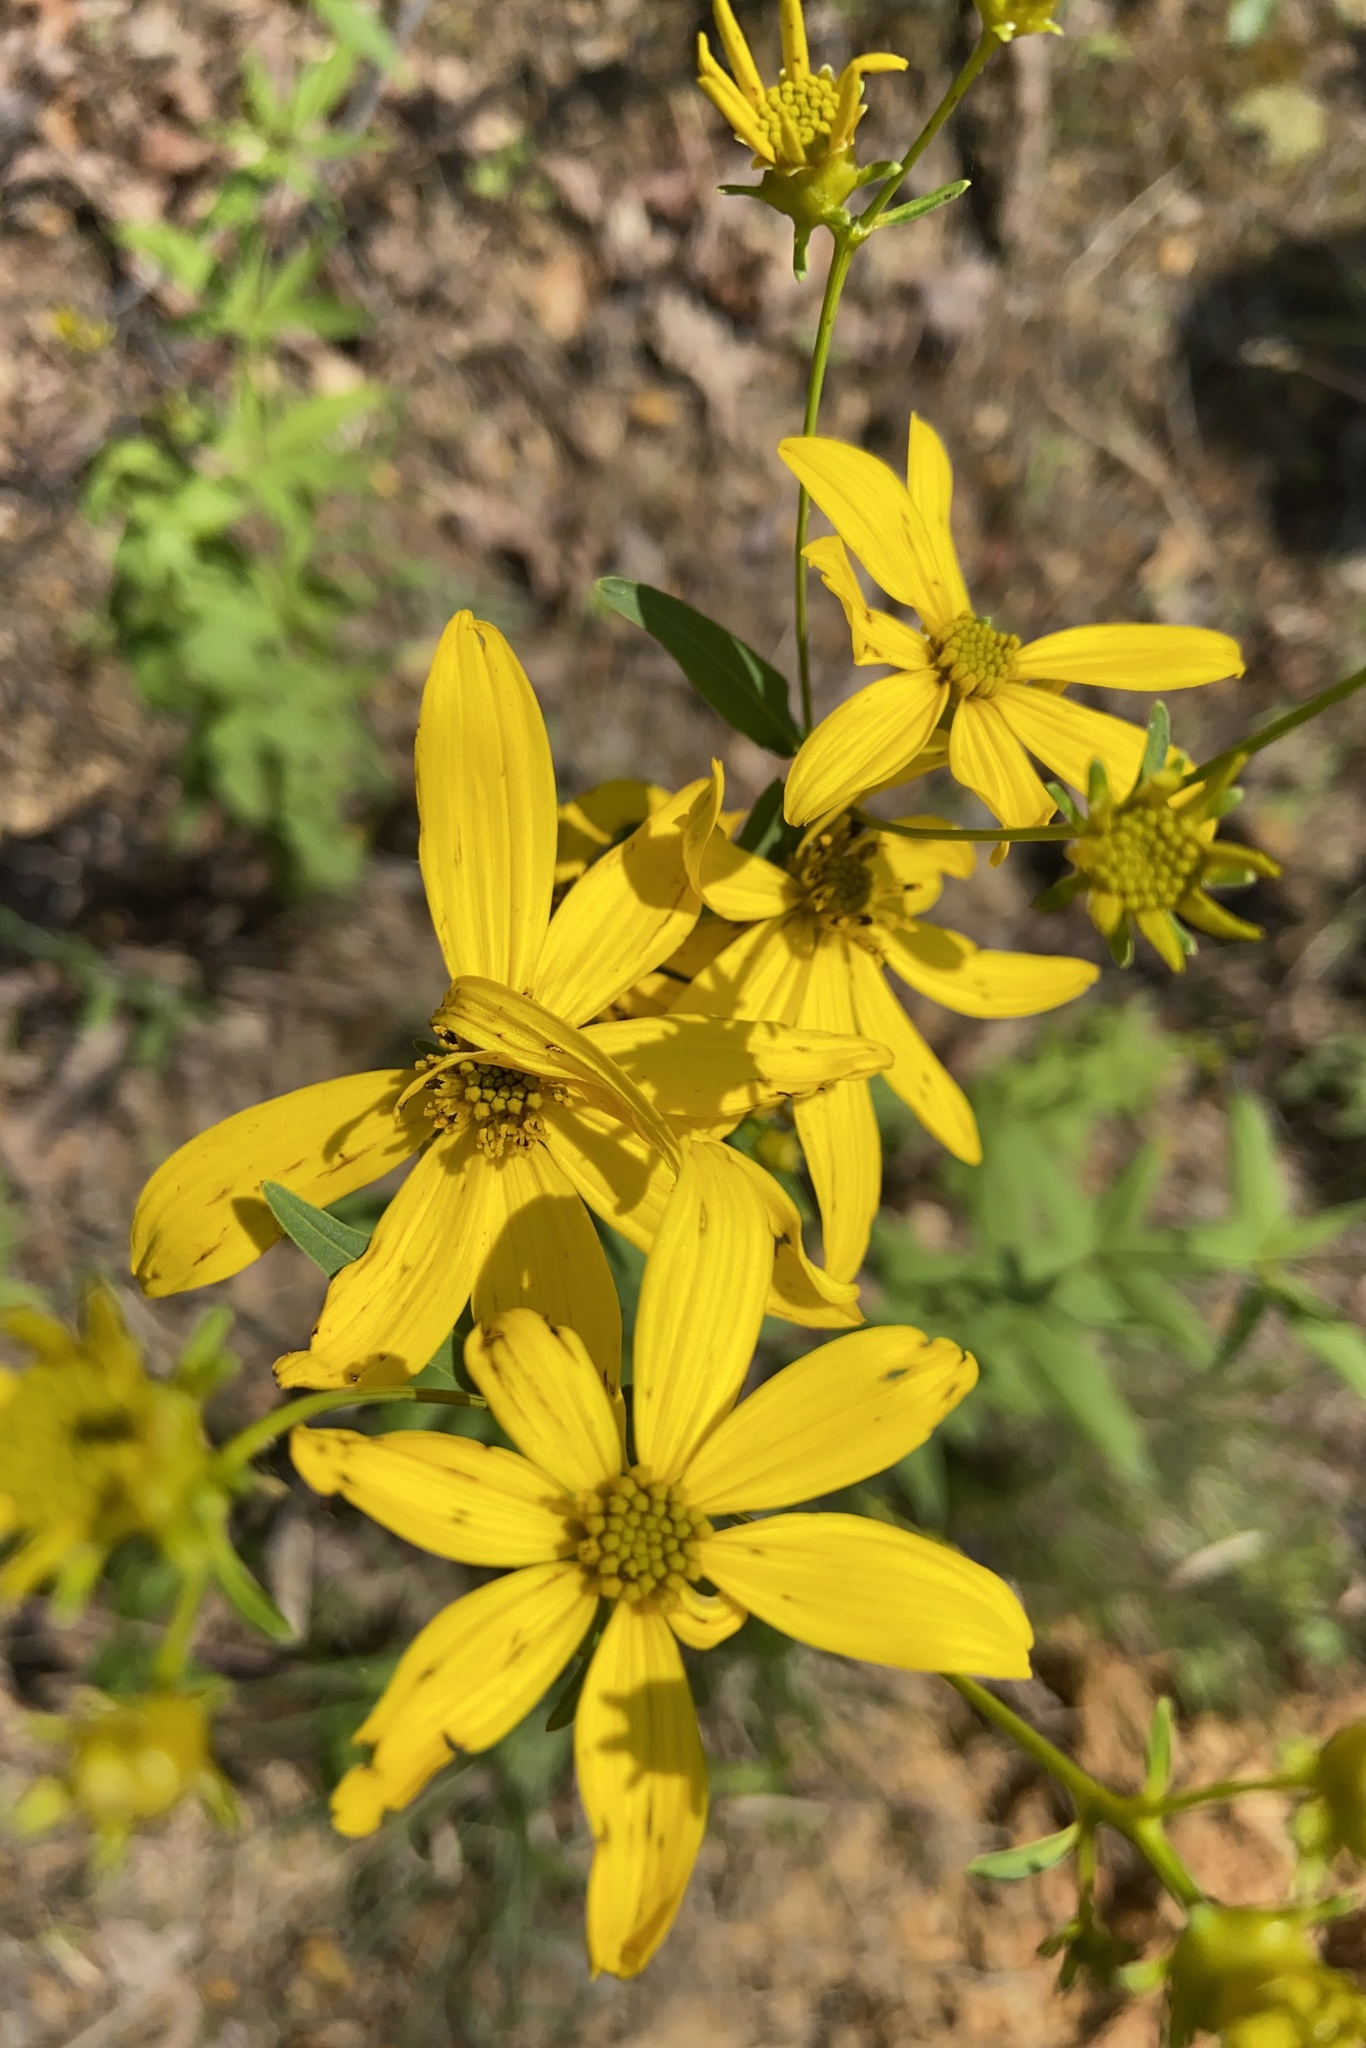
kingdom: Plantae
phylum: Tracheophyta
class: Magnoliopsida
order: Asterales
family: Asteraceae
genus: Coreopsis
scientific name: Coreopsis major
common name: Forest tickseed
